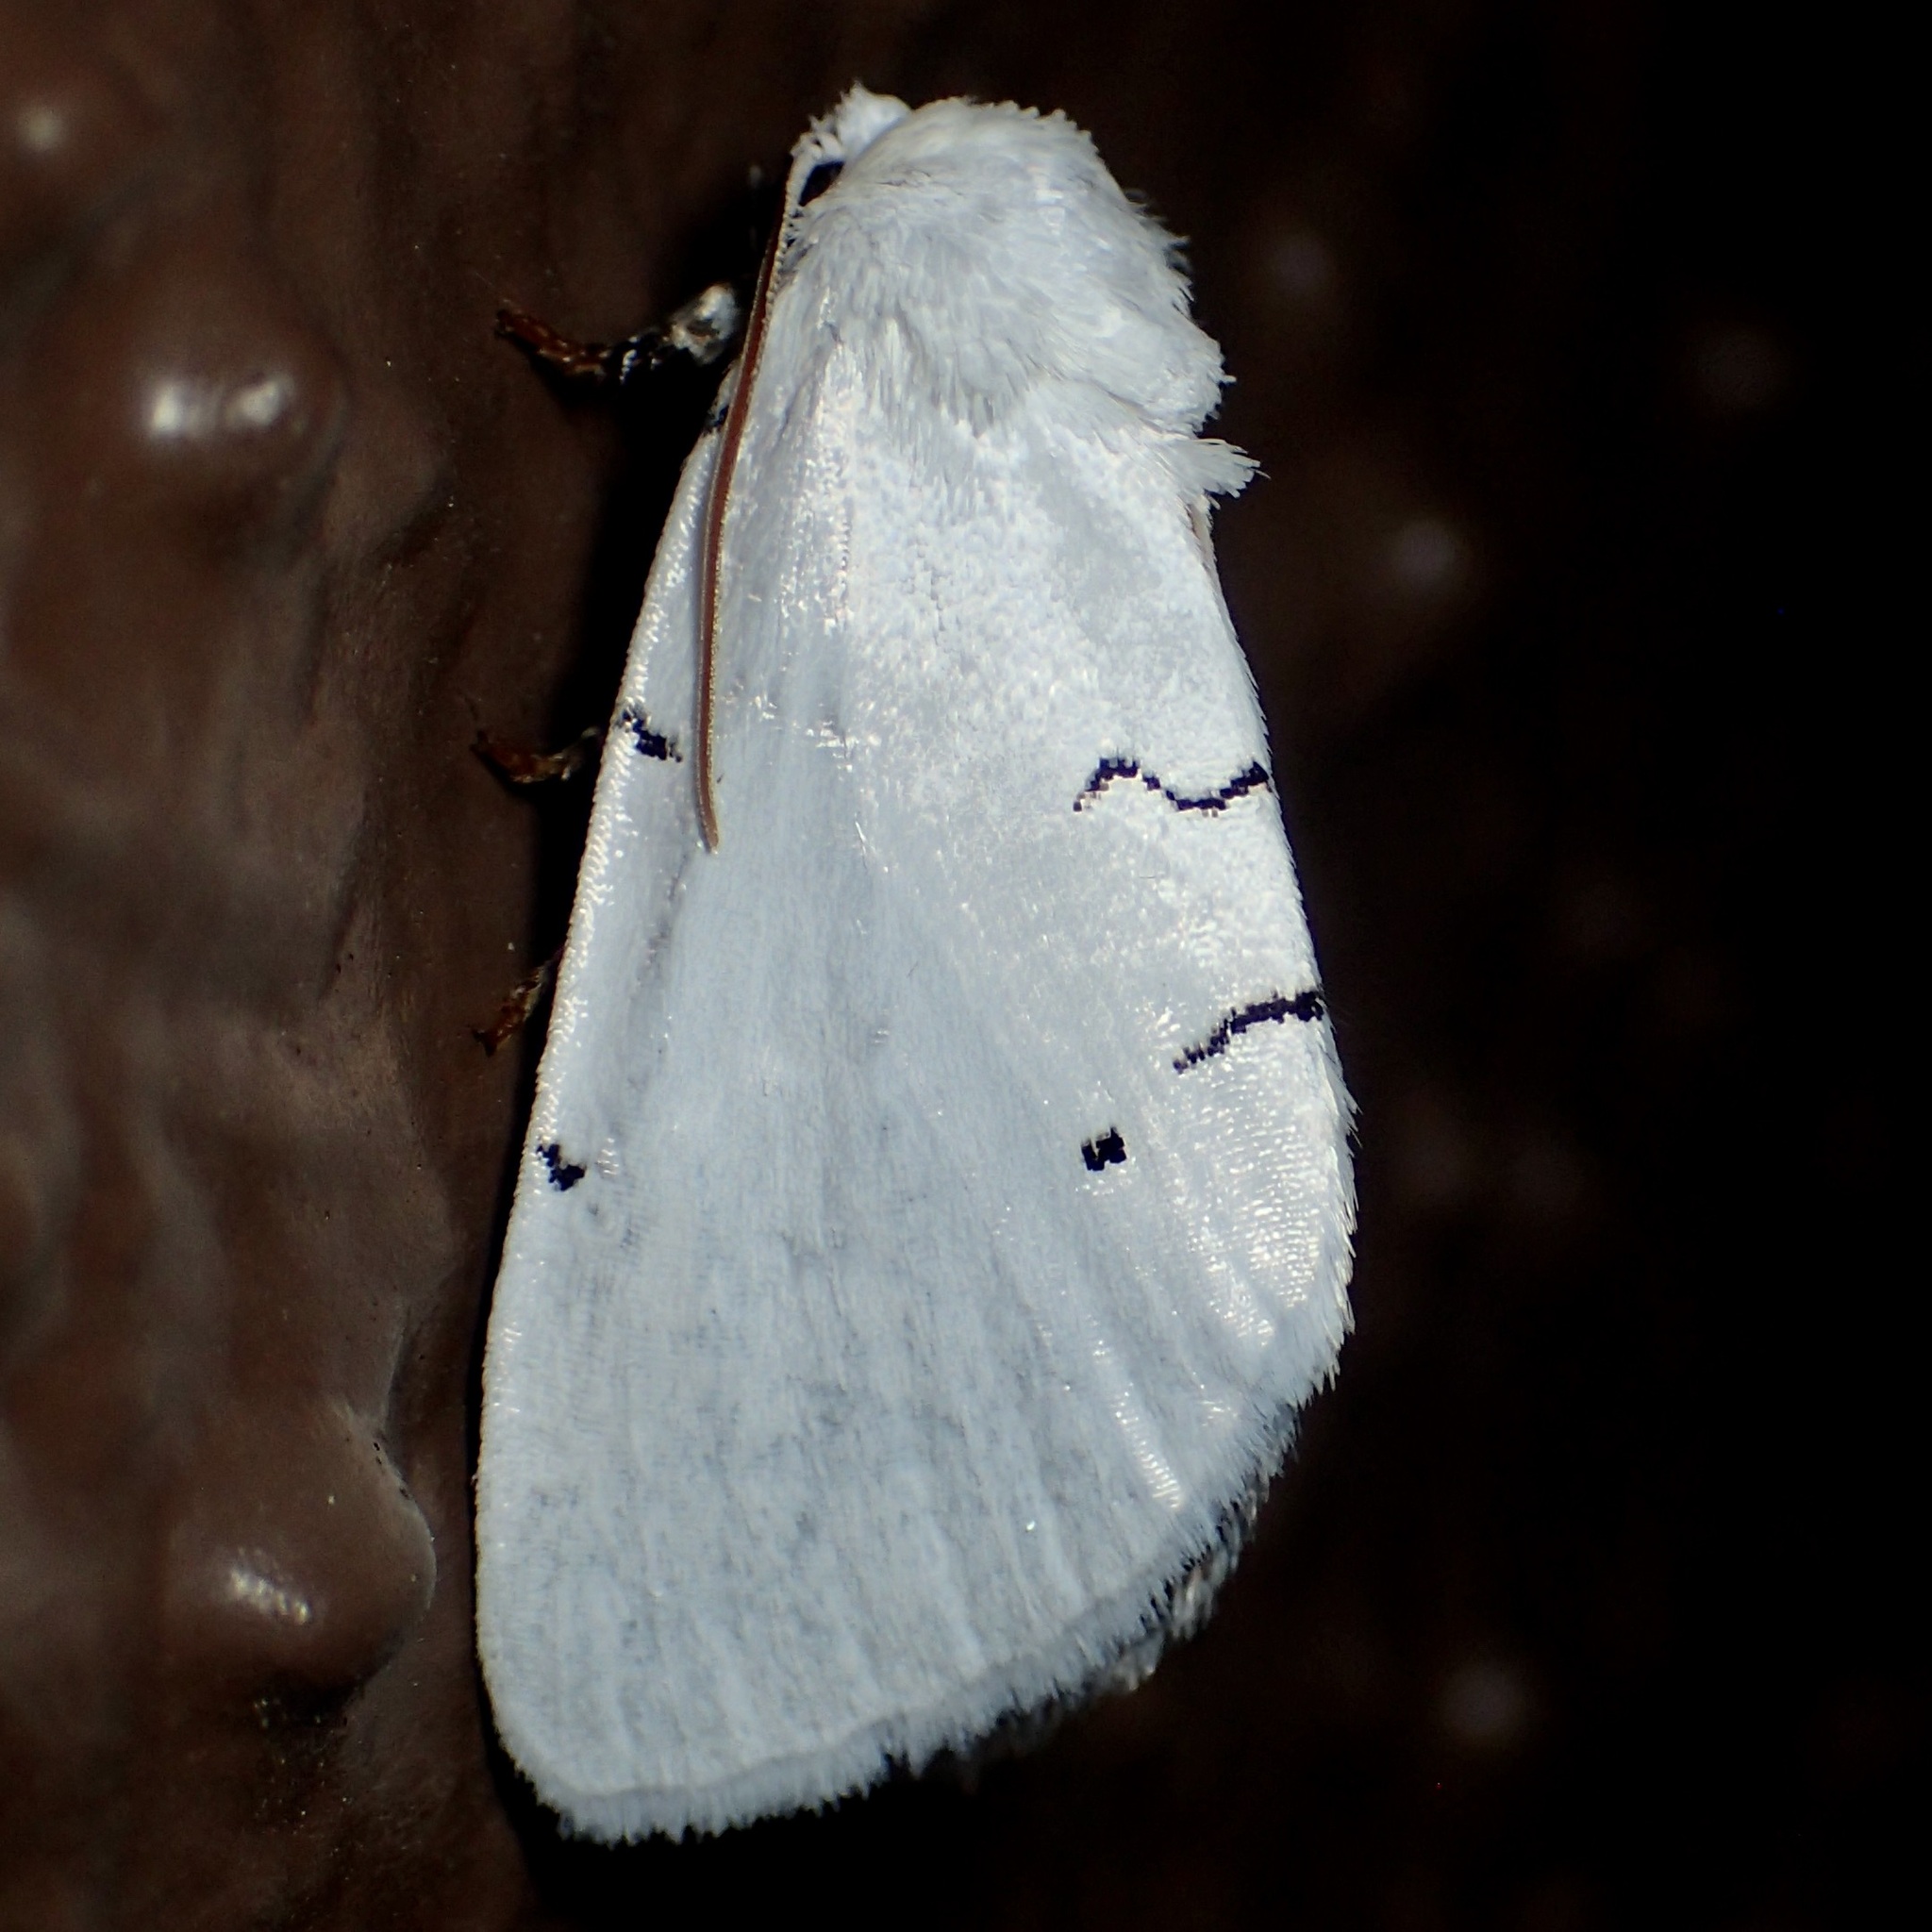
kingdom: Animalia
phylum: Arthropoda
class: Insecta
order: Lepidoptera
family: Noctuidae
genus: Hemioslaria
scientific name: Hemioslaria pima
